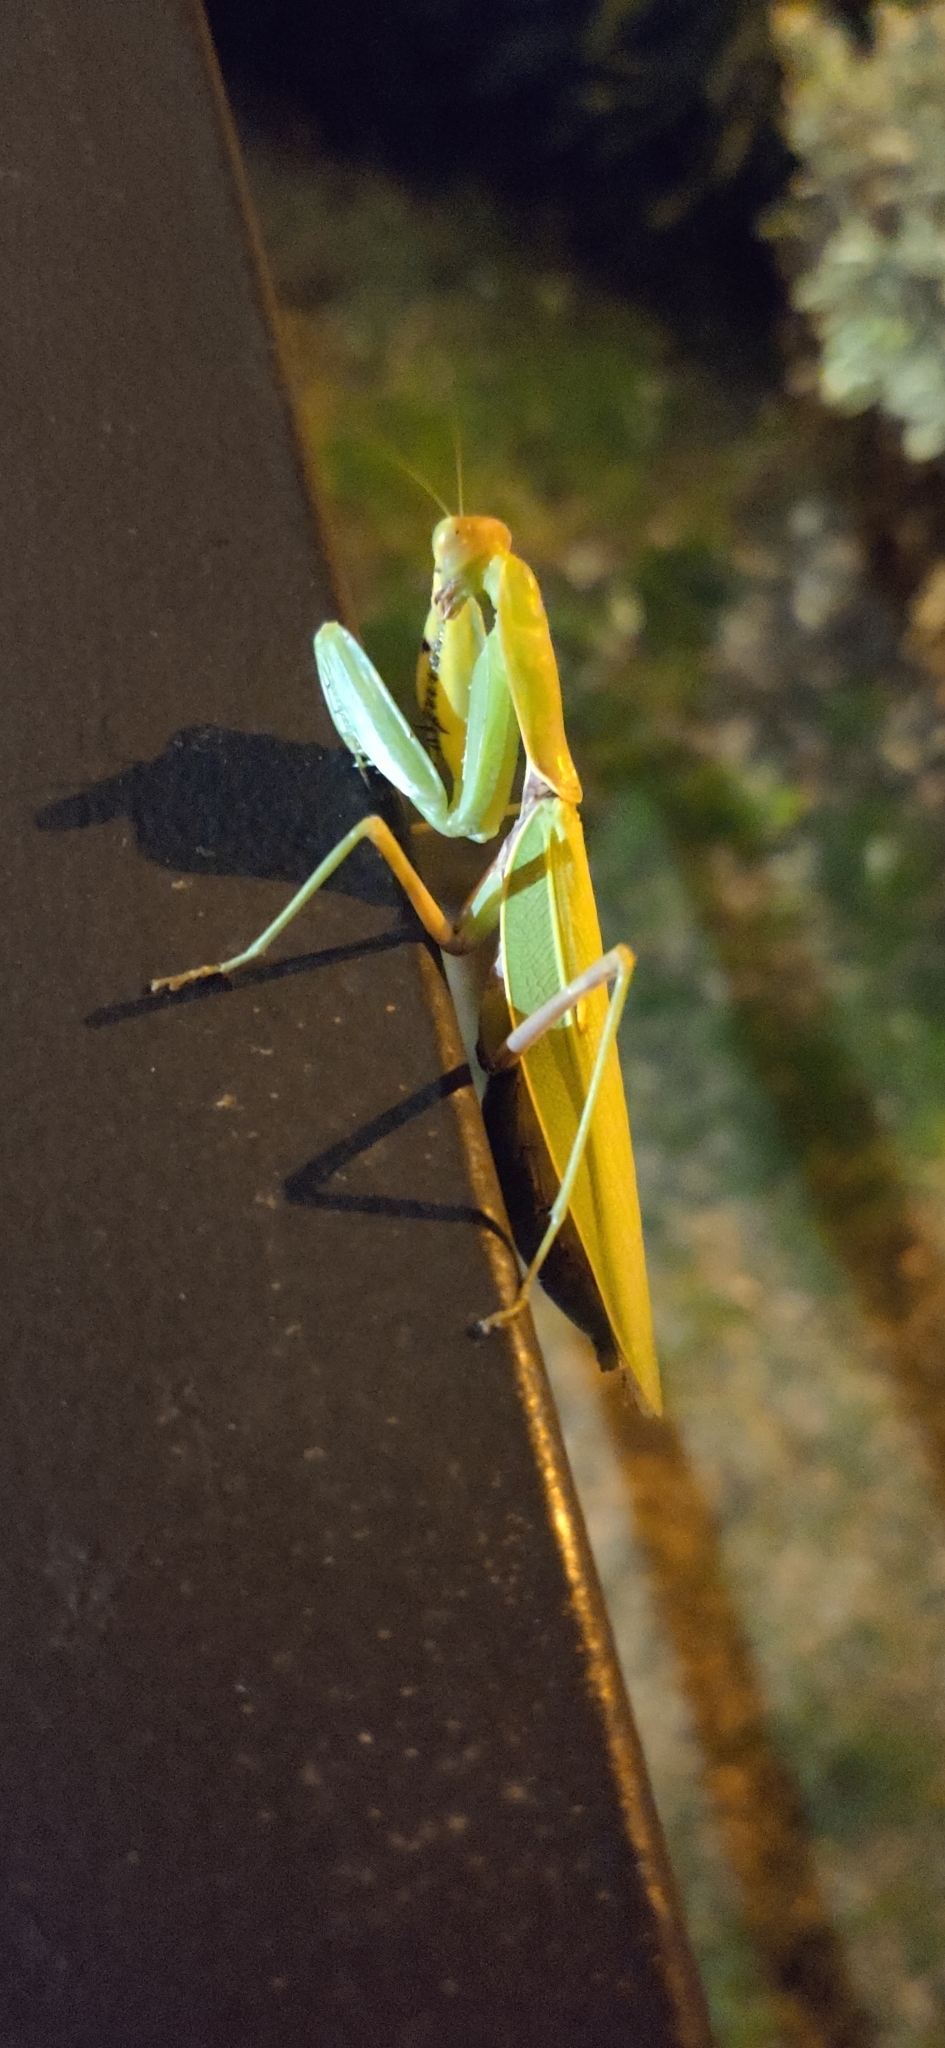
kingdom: Animalia
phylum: Arthropoda
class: Insecta
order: Mantodea
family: Mantidae
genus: Hierodula
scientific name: Hierodula transcaucasica
